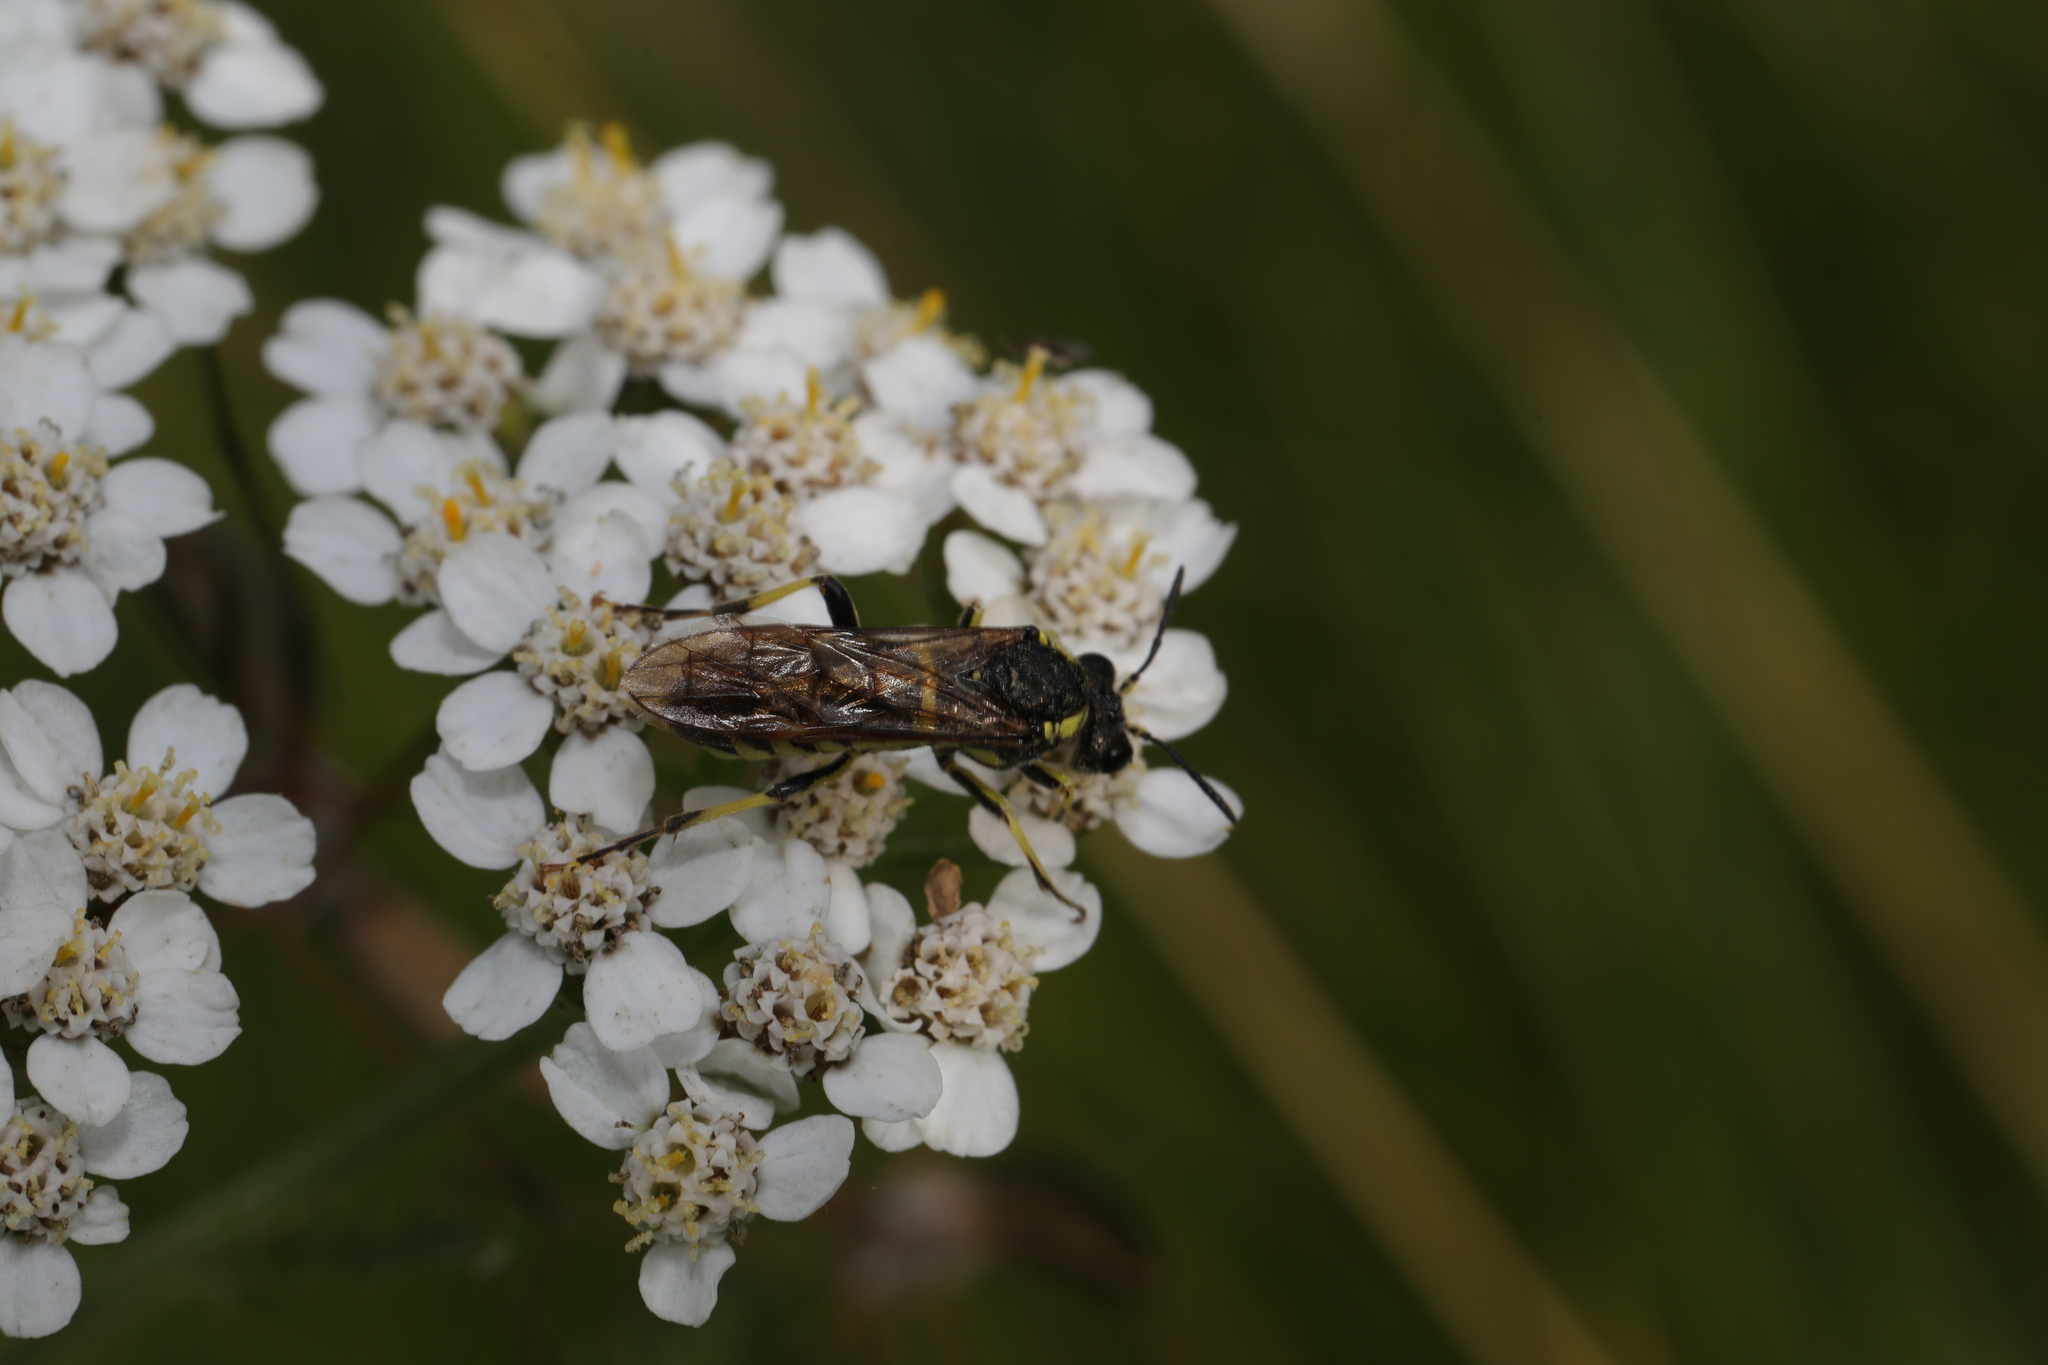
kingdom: Animalia
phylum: Arthropoda
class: Insecta
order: Hymenoptera
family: Tenthredinidae
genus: Tenthredo
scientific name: Tenthredo
